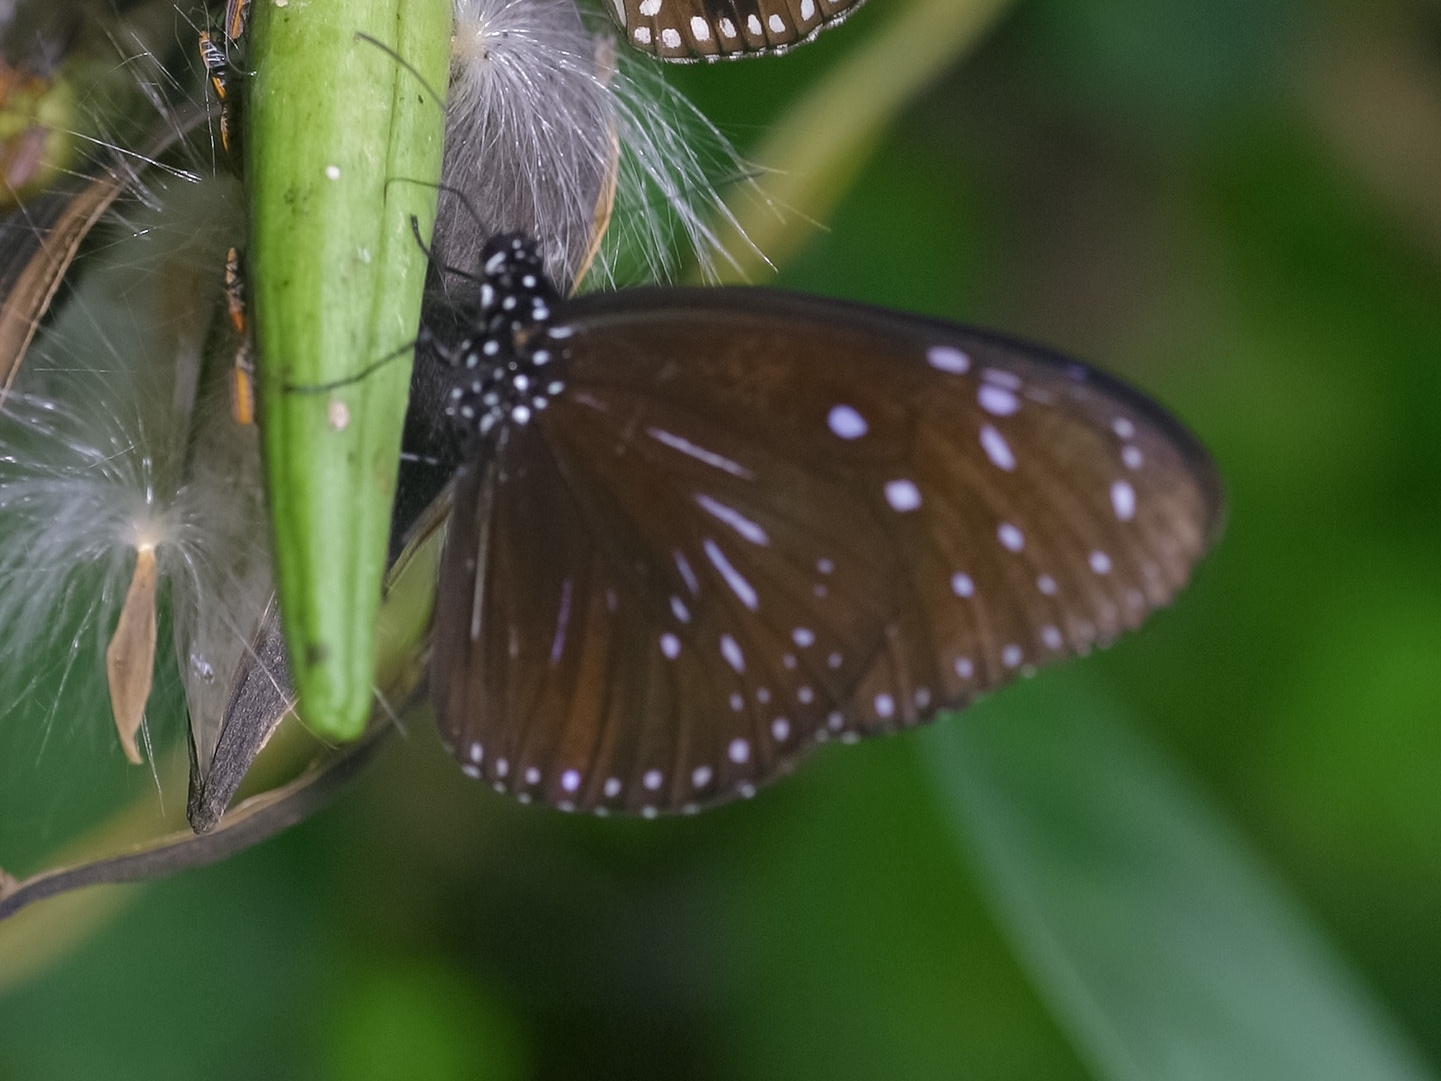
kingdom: Animalia
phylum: Arthropoda
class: Insecta
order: Lepidoptera
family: Nymphalidae
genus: Euploea
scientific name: Euploea mulciber
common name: Striped blue crow butterfly
